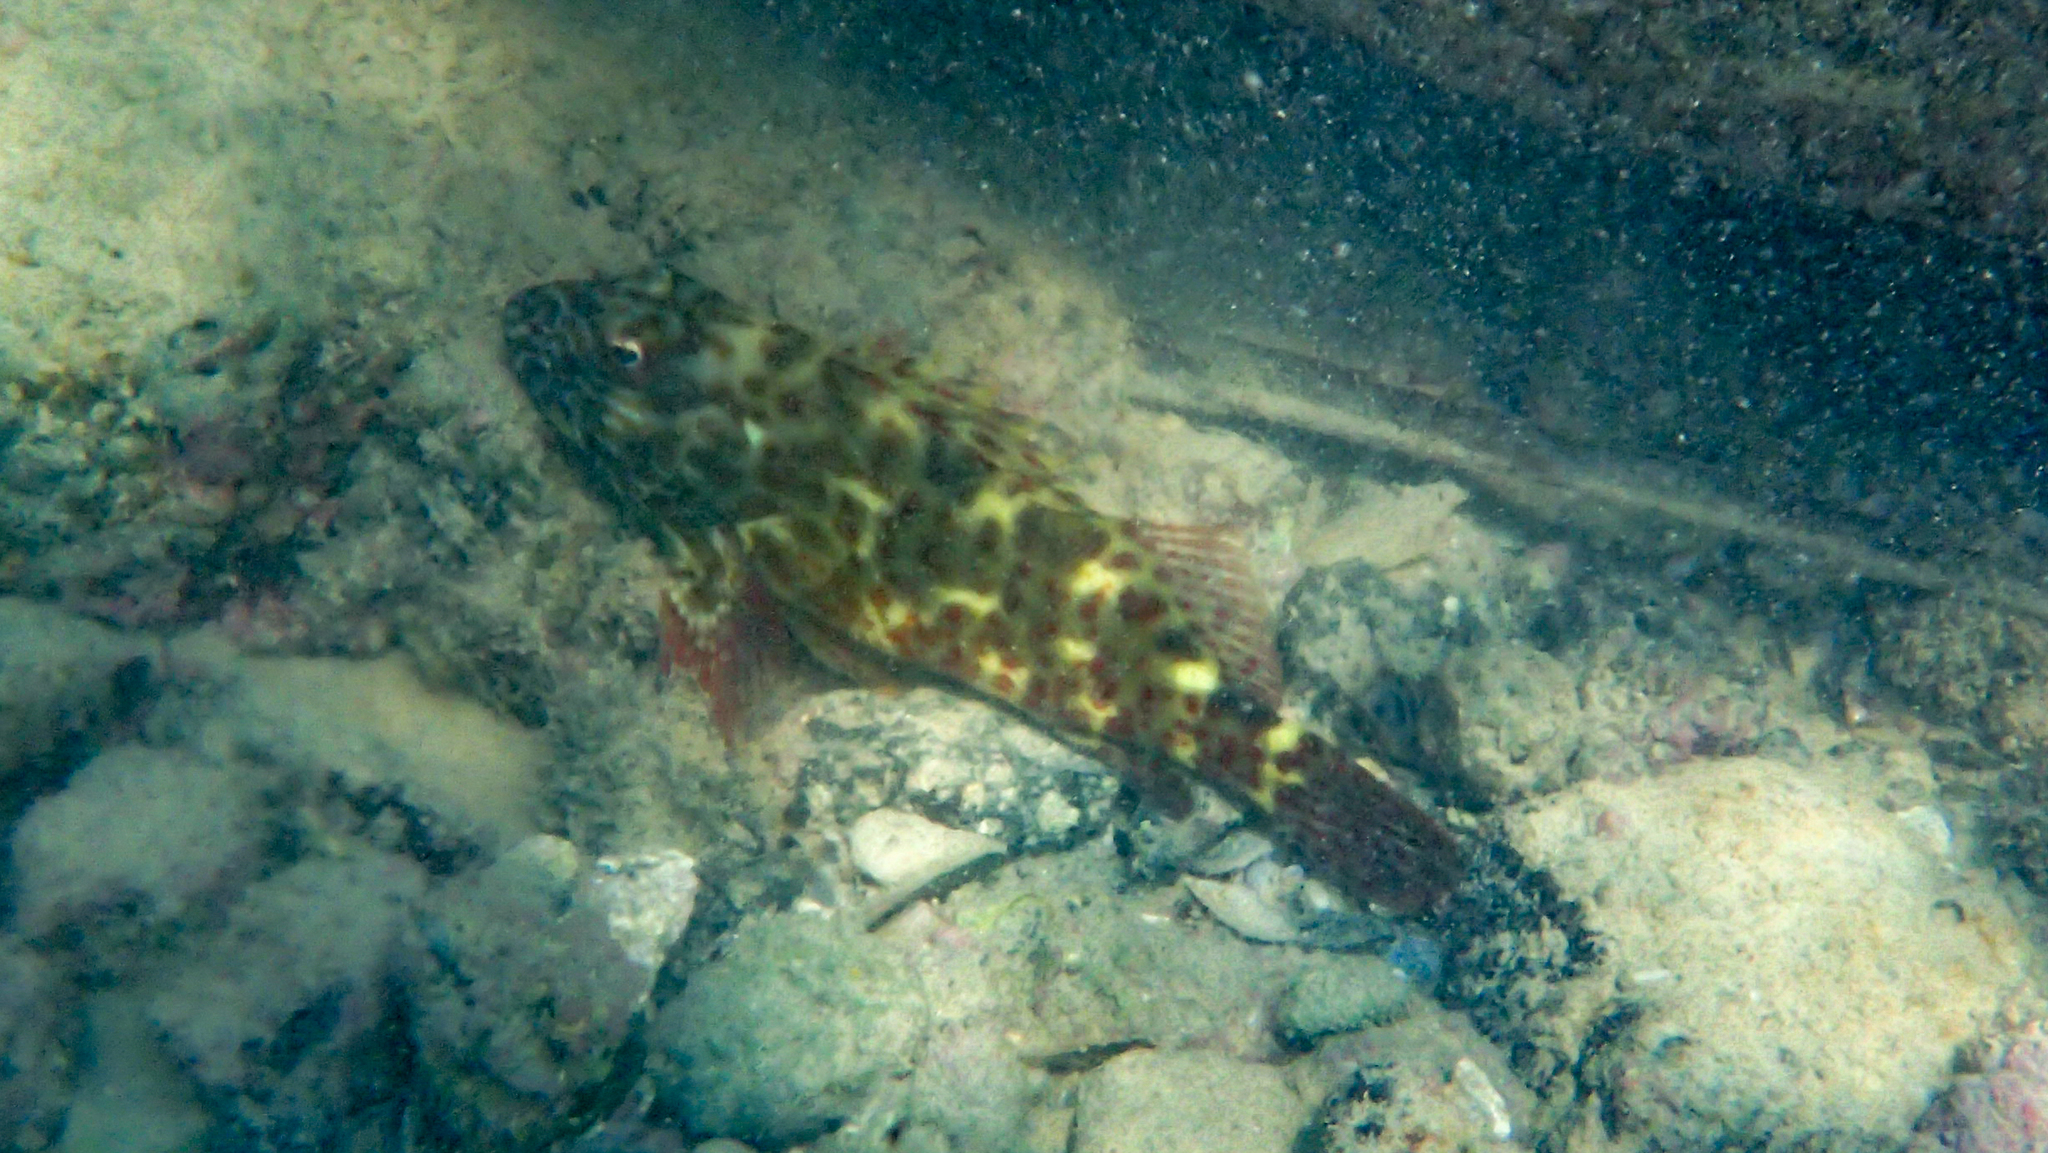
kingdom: Animalia
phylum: Chordata
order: Perciformes
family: Cirrhitidae
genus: Cirrhitus
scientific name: Cirrhitus pinnulatus
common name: Stocky hawkfish
